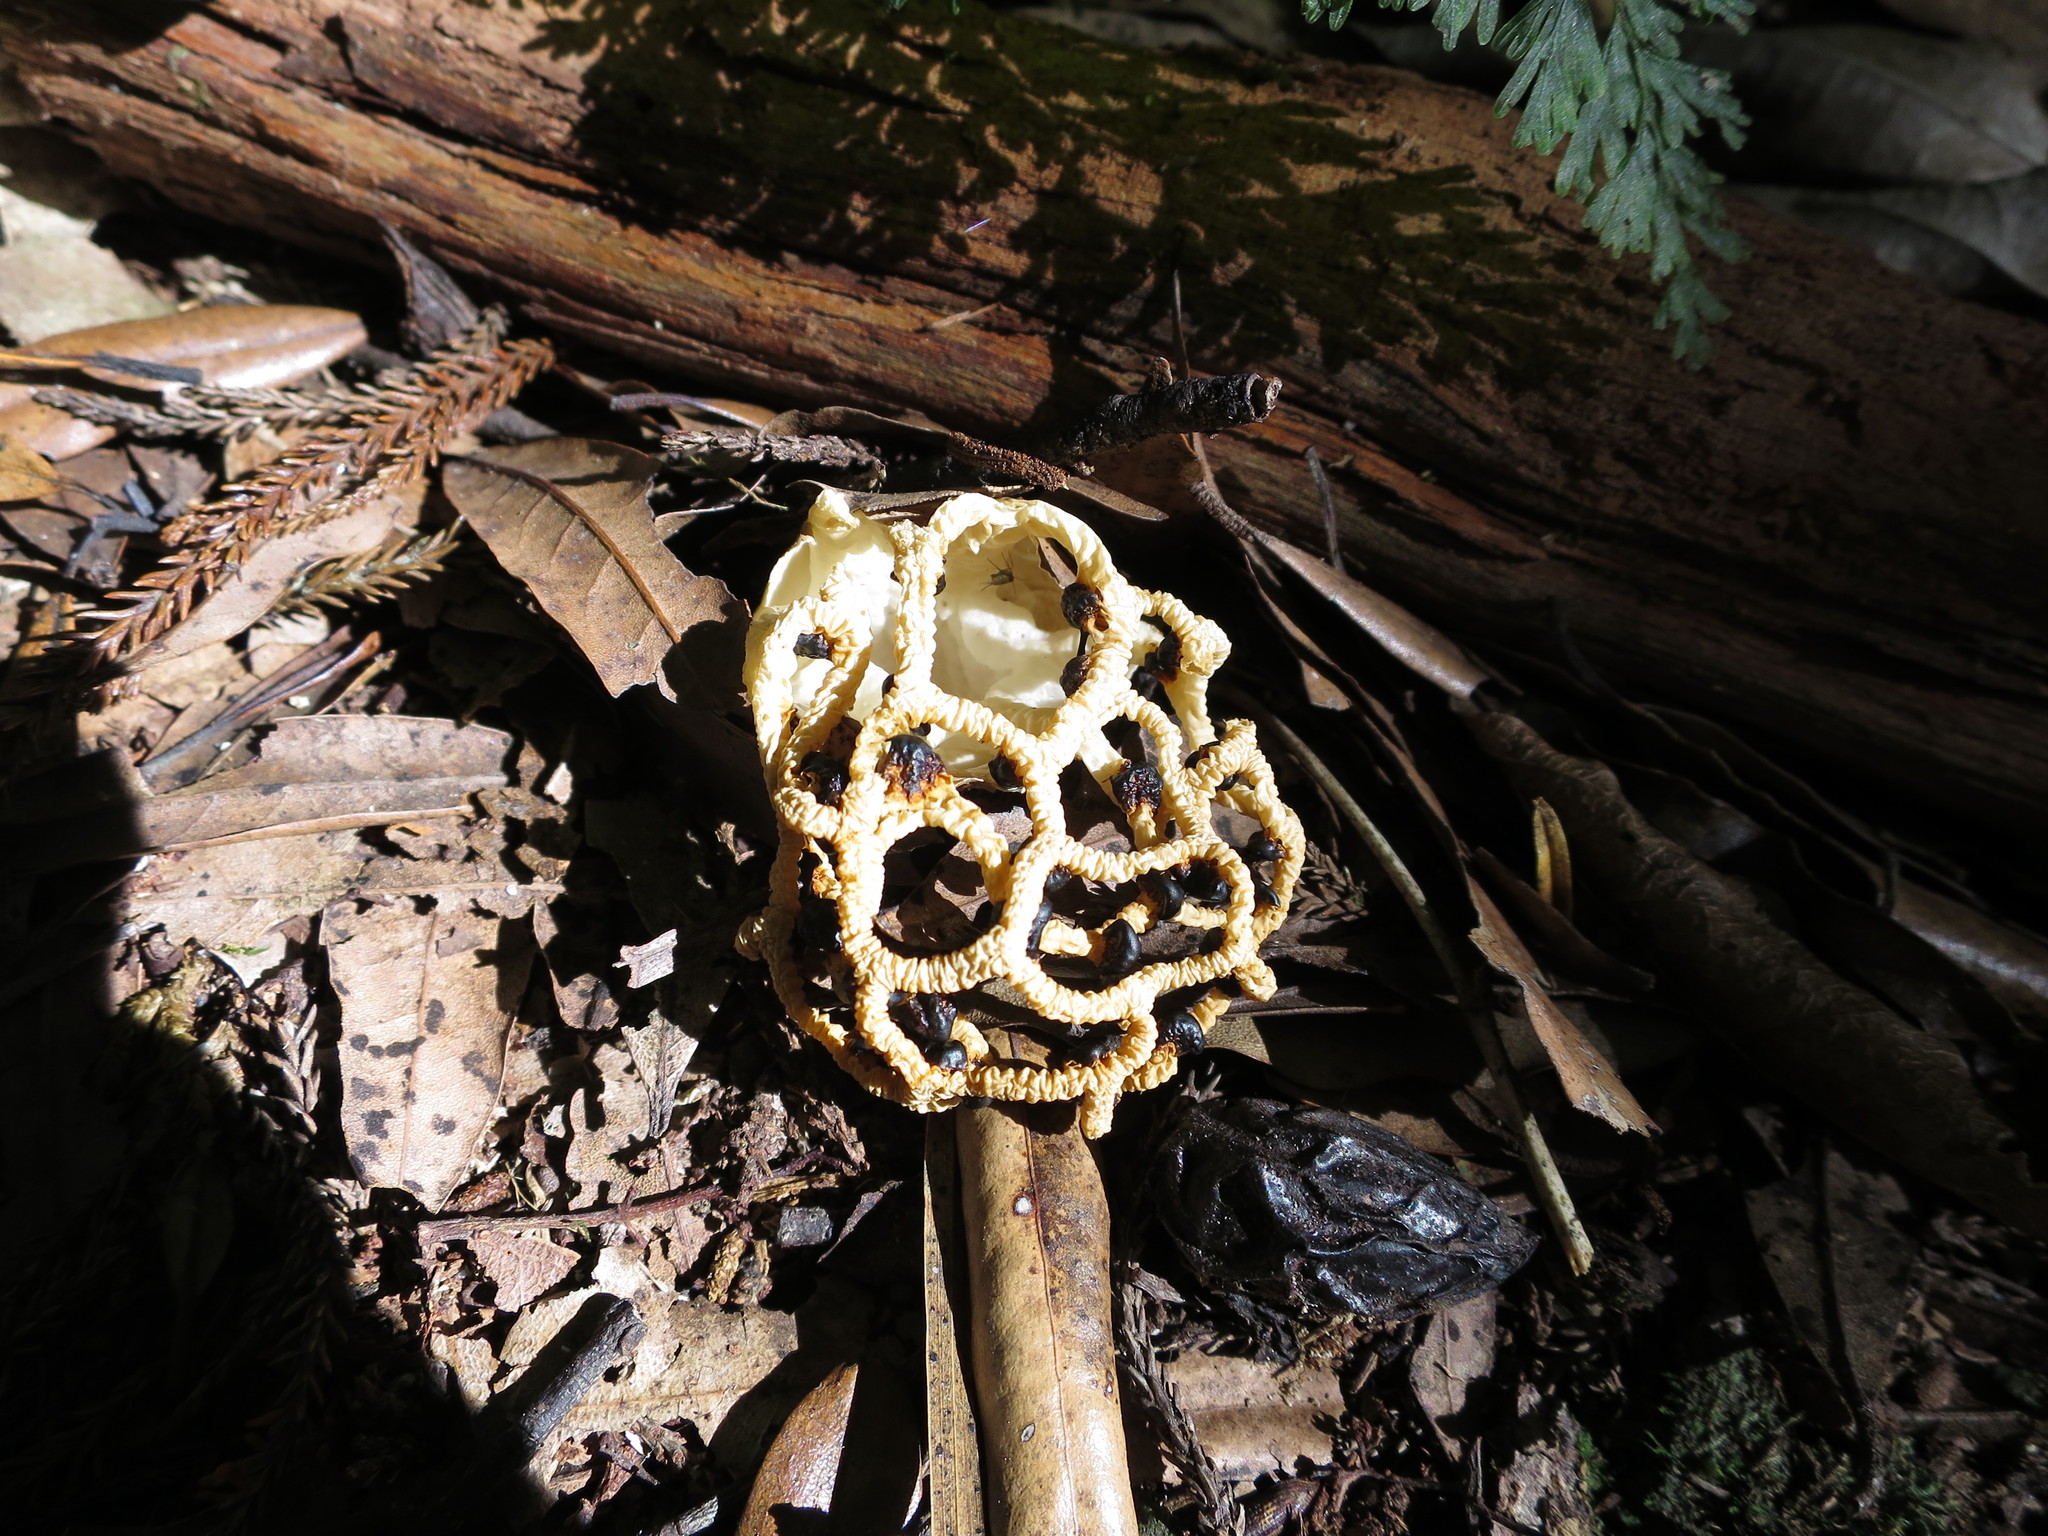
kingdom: Fungi
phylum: Basidiomycota
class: Agaricomycetes
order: Phallales
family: Phallaceae
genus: Clathrus
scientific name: Clathrus chrysomycelinus
